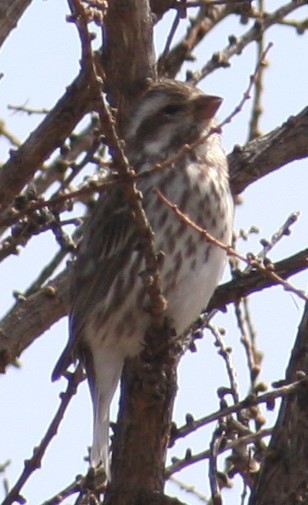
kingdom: Animalia
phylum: Chordata
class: Aves
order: Passeriformes
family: Fringillidae
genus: Haemorhous
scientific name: Haemorhous purpureus
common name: Purple finch
